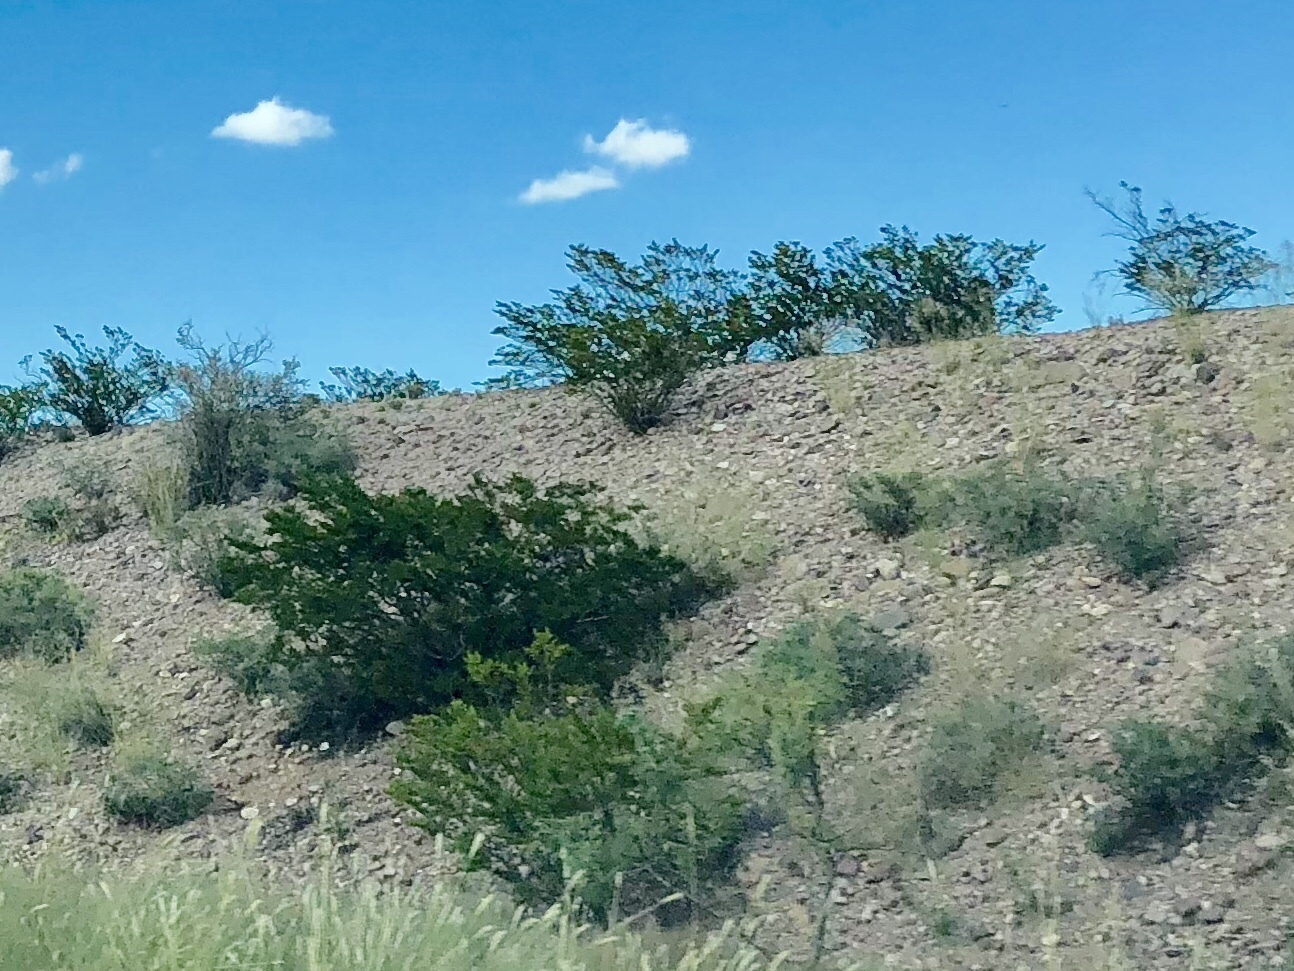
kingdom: Plantae
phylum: Tracheophyta
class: Magnoliopsida
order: Zygophyllales
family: Zygophyllaceae
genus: Larrea
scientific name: Larrea tridentata
